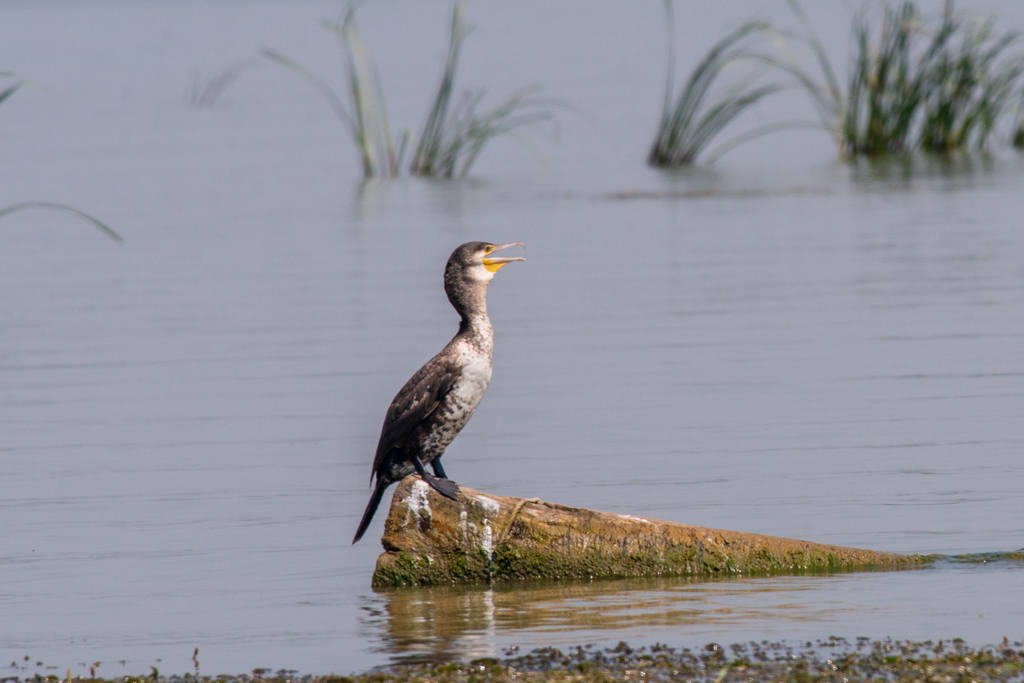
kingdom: Animalia
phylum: Chordata
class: Aves
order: Suliformes
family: Phalacrocoracidae
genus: Phalacrocorax
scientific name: Phalacrocorax carbo
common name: Great cormorant
